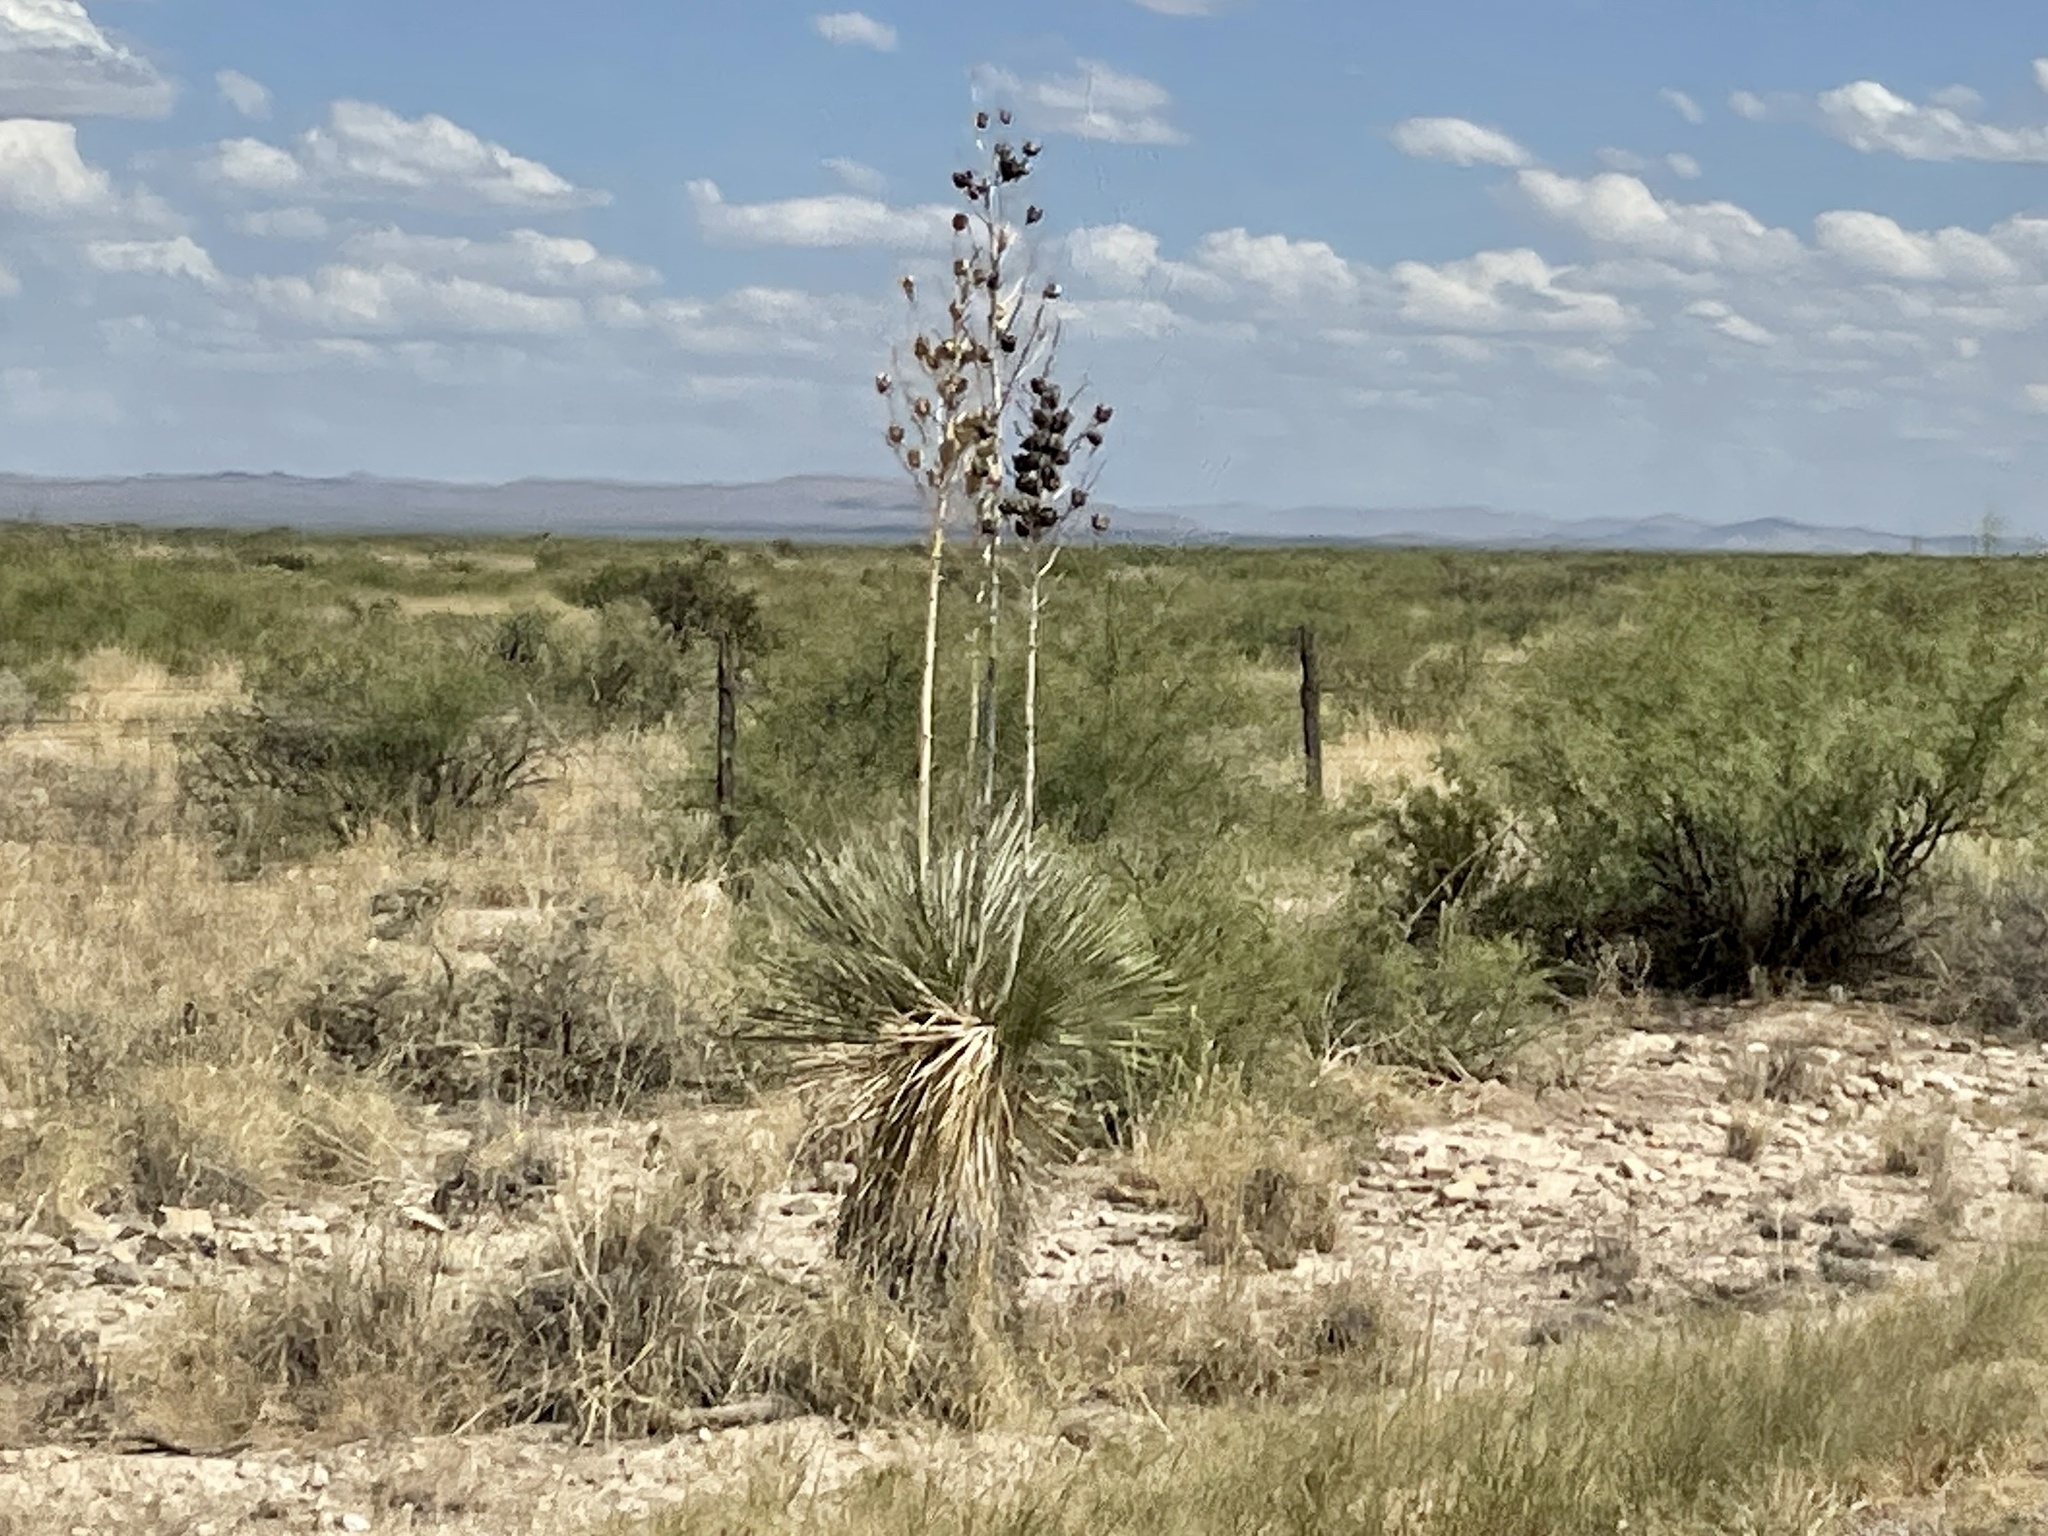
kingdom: Plantae
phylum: Tracheophyta
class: Liliopsida
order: Asparagales
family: Asparagaceae
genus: Yucca
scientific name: Yucca elata
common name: Palmella
